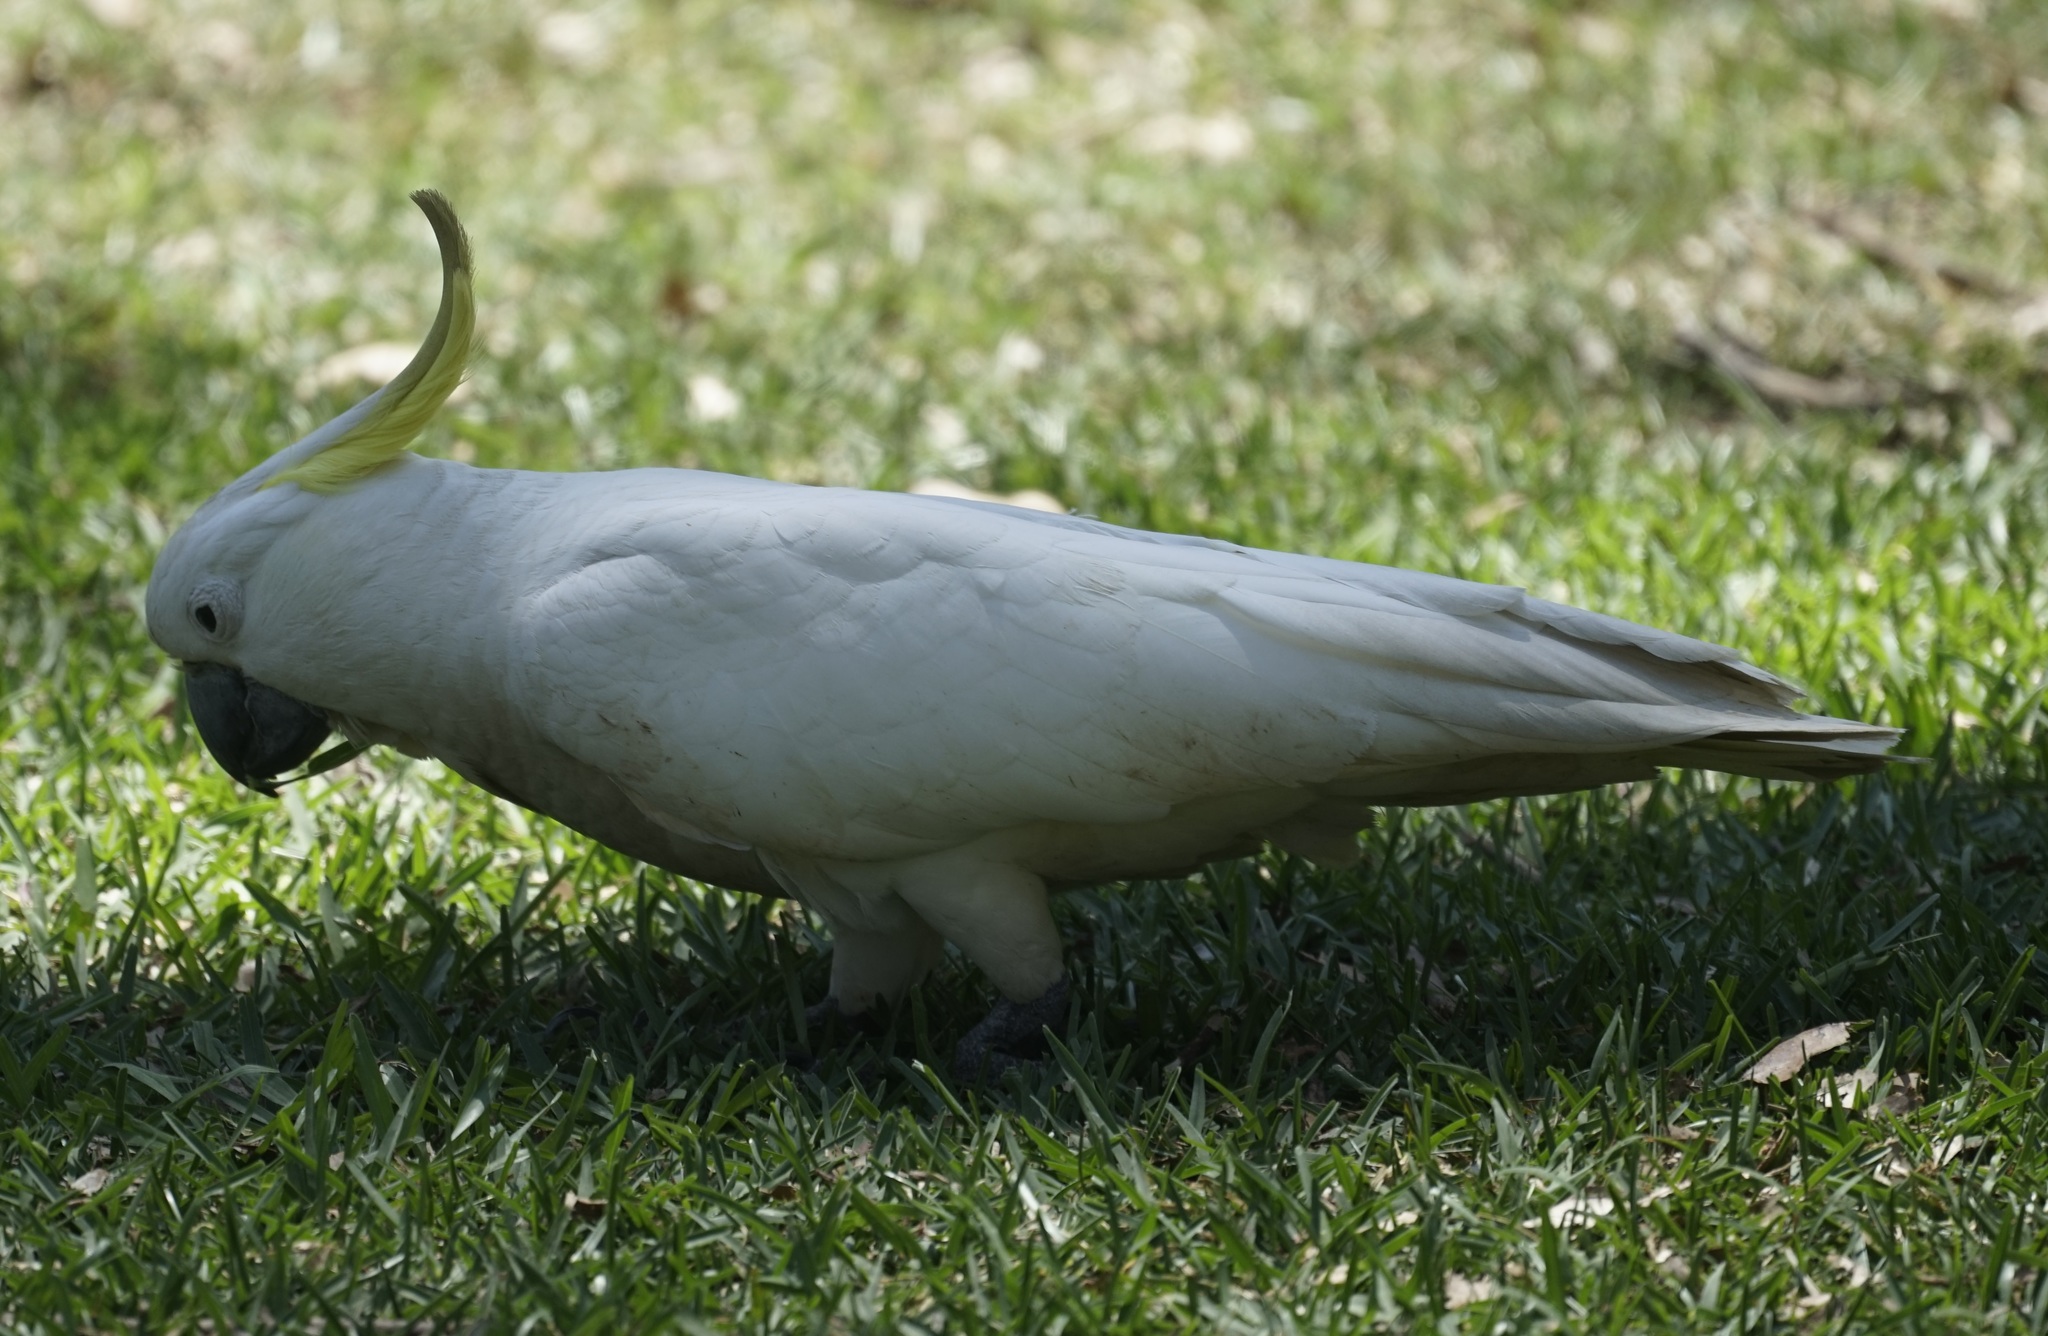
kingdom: Animalia
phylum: Chordata
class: Aves
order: Psittaciformes
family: Psittacidae
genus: Cacatua
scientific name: Cacatua galerita
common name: Sulphur-crested cockatoo
